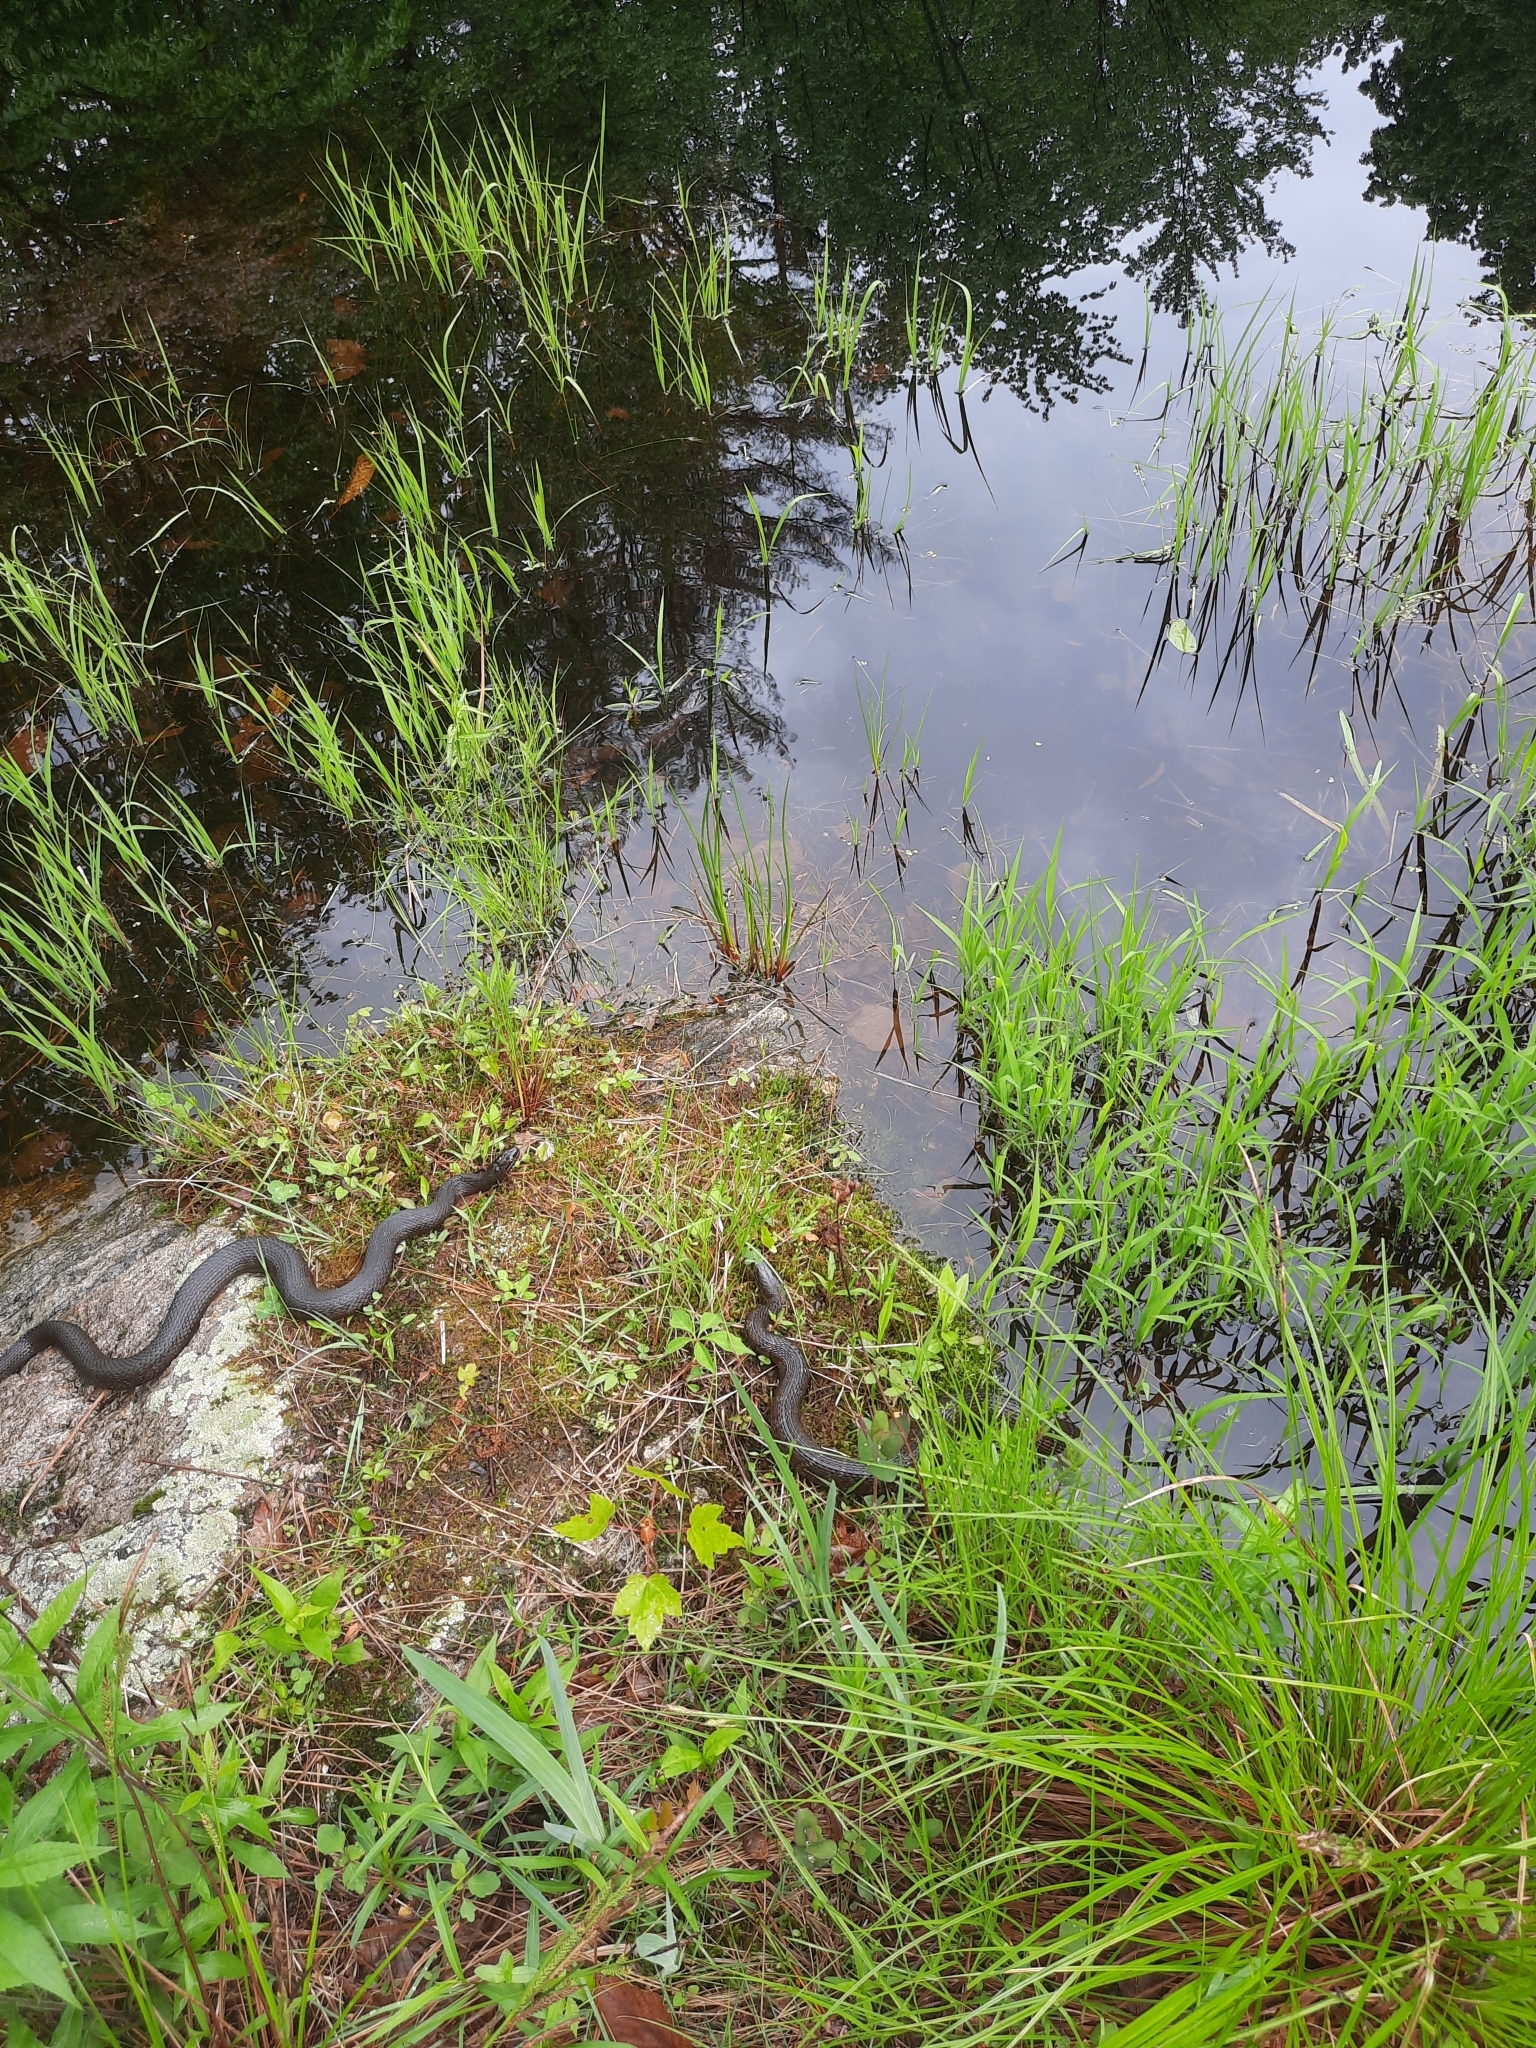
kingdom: Animalia
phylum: Chordata
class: Squamata
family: Colubridae
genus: Nerodia
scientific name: Nerodia sipedon
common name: Northern water snake
